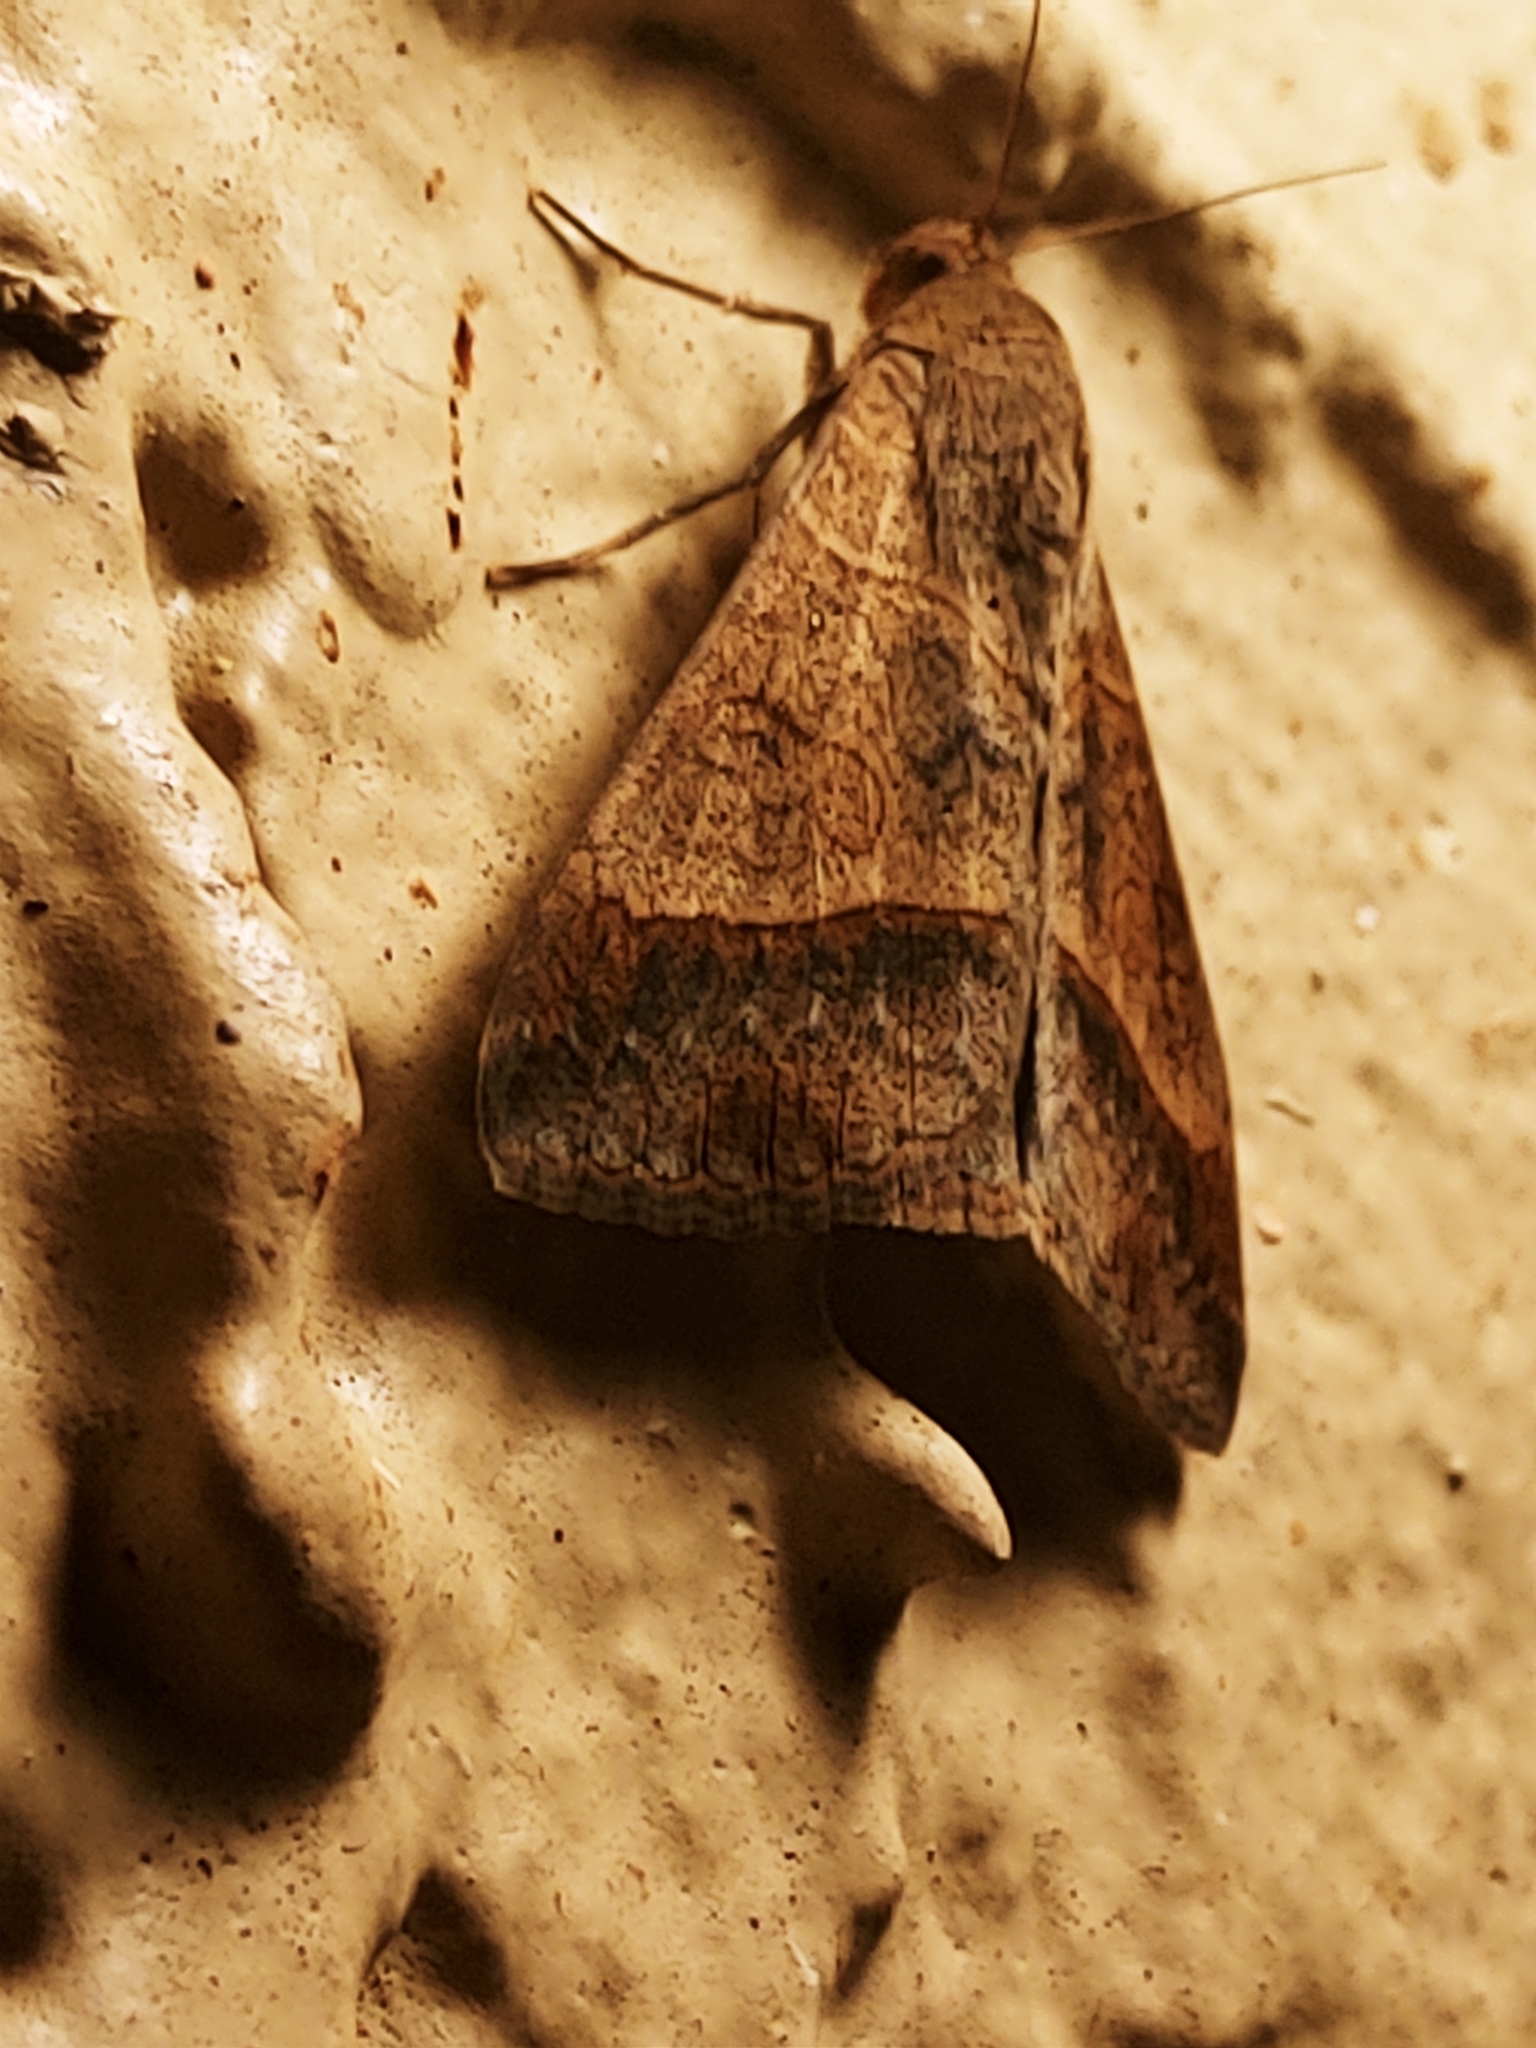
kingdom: Animalia
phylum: Arthropoda
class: Insecta
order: Lepidoptera
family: Erebidae
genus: Mocis
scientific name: Mocis latipes
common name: Striped grass looper
